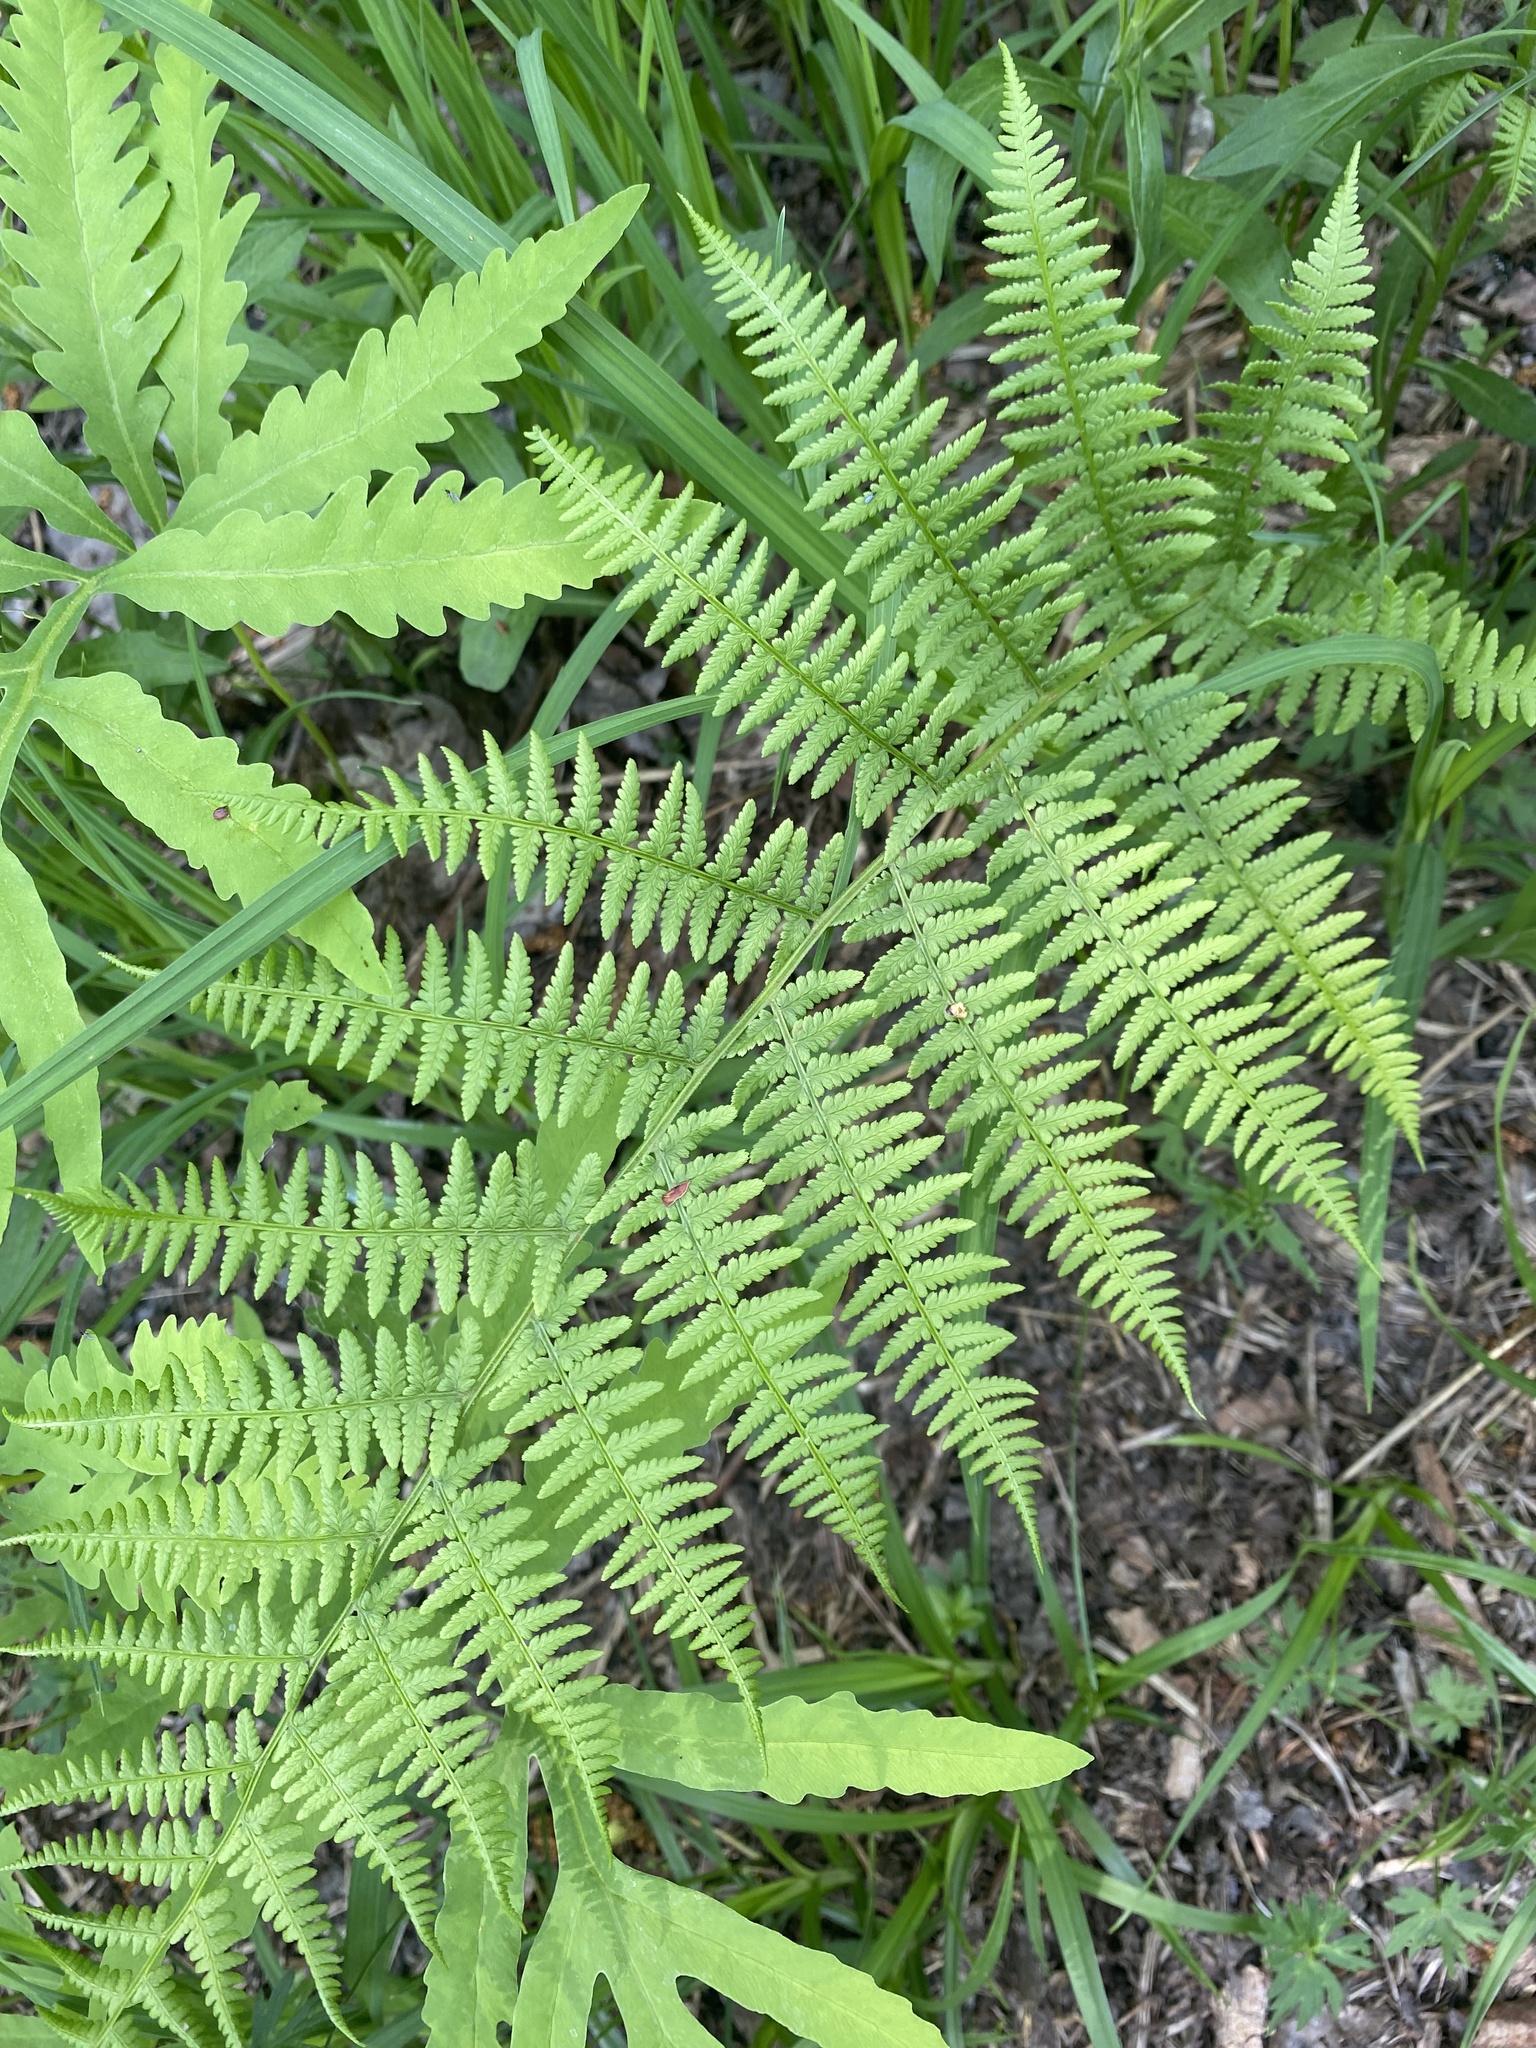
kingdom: Plantae
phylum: Tracheophyta
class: Polypodiopsida
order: Polypodiales
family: Athyriaceae
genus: Athyrium
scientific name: Athyrium angustum
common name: Northern lady fern
